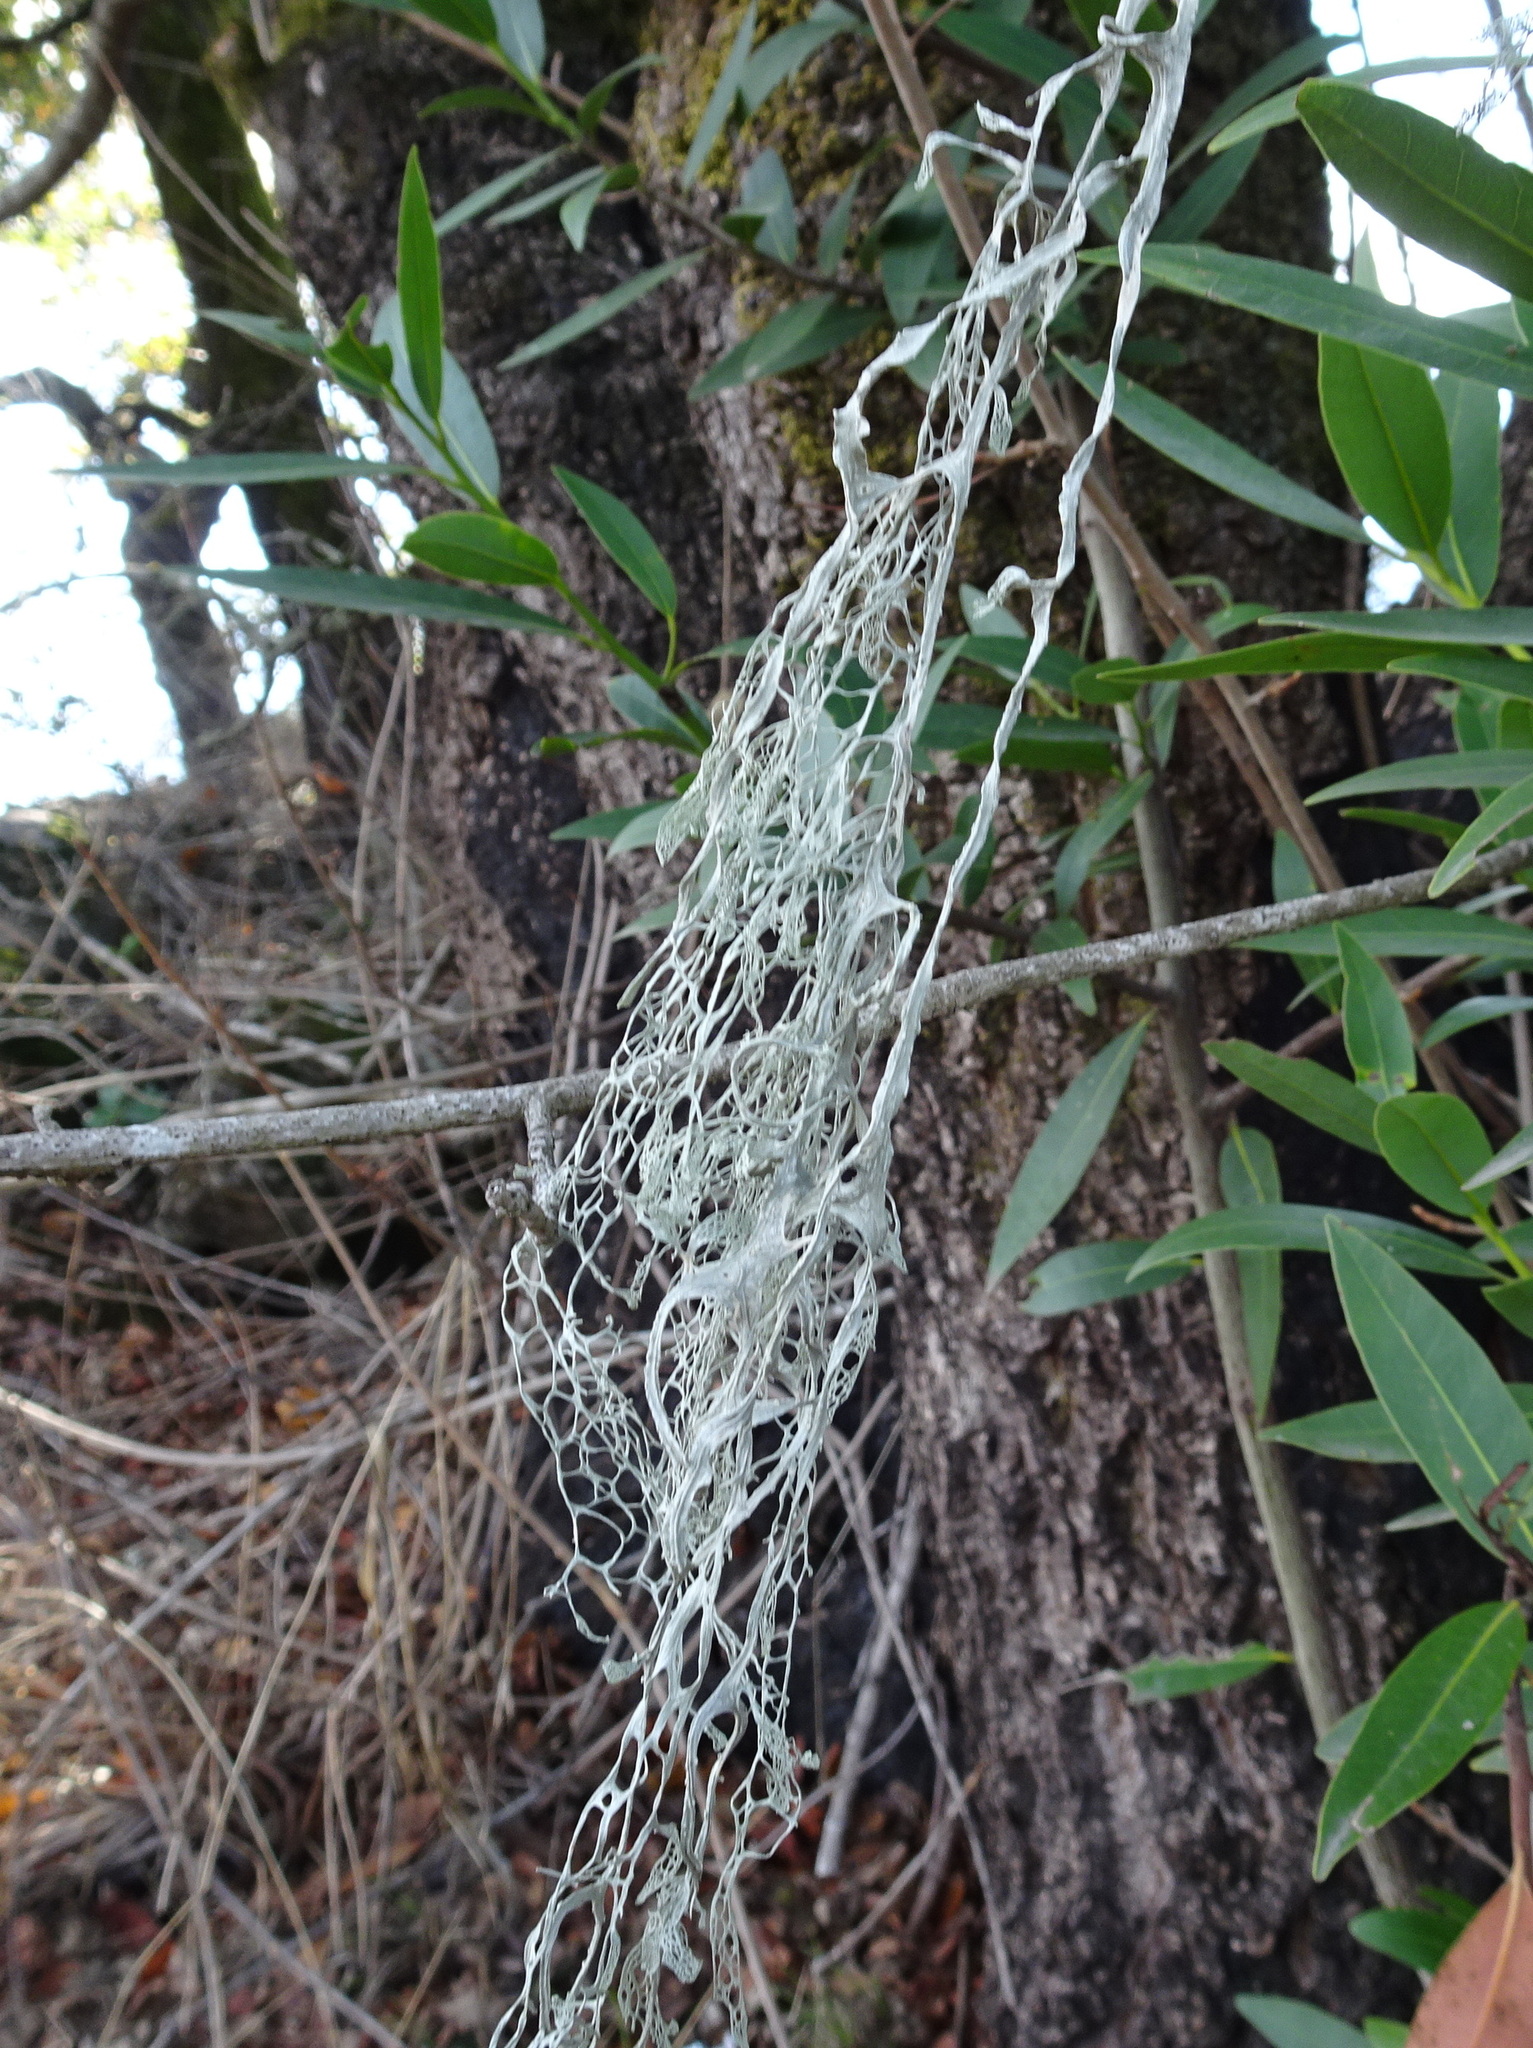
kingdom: Fungi
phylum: Ascomycota
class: Lecanoromycetes
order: Lecanorales
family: Ramalinaceae
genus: Ramalina
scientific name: Ramalina menziesii
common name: Lace lichen
